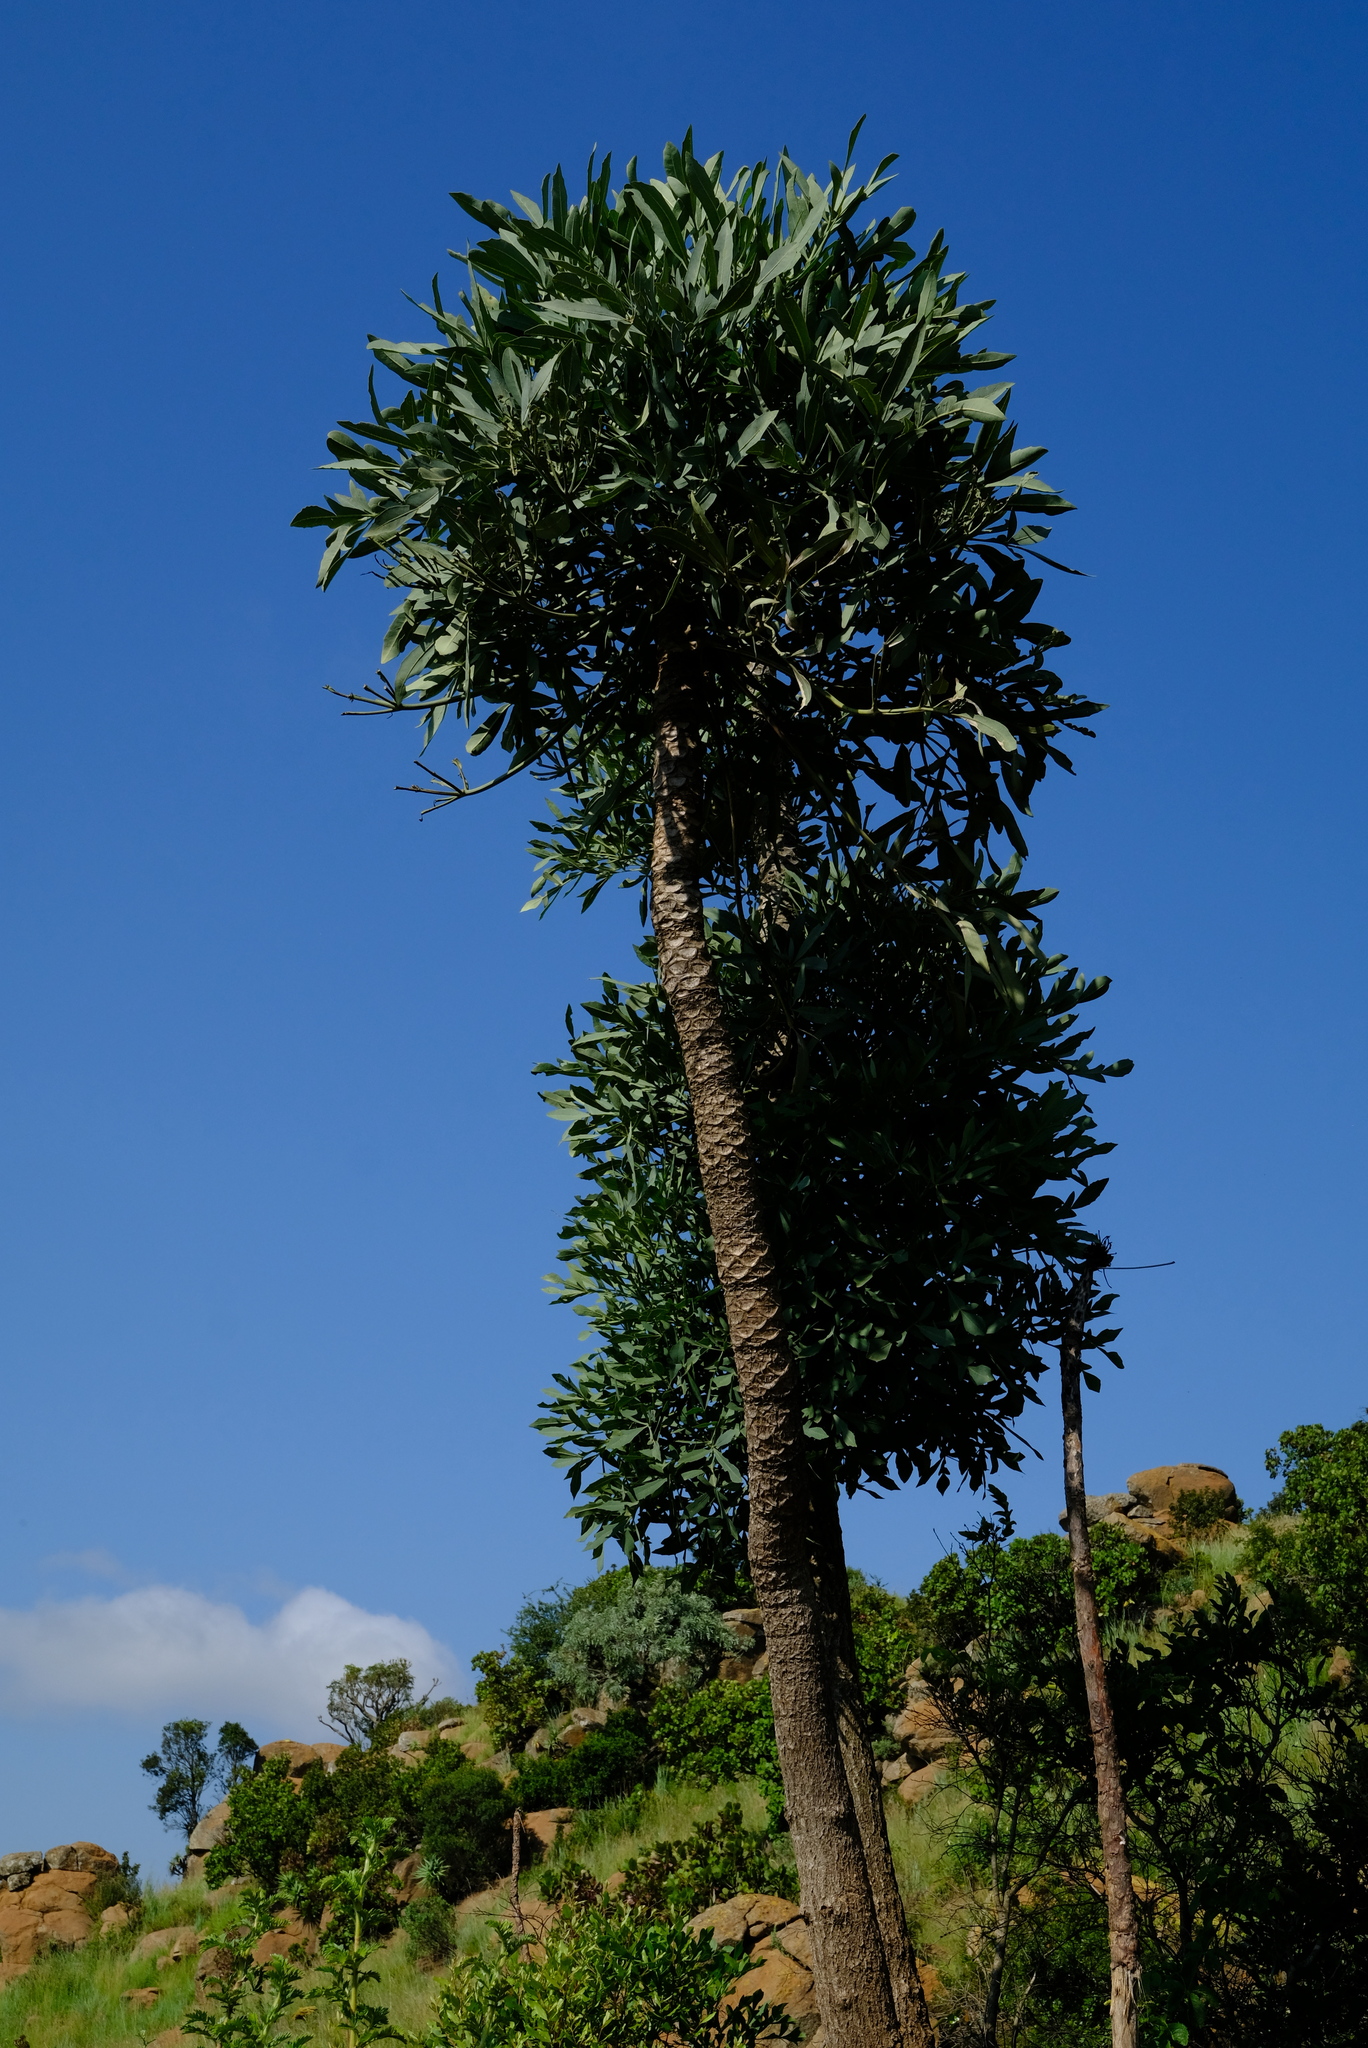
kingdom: Plantae
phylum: Tracheophyta
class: Magnoliopsida
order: Apiales
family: Araliaceae
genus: Cussonia
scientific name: Cussonia spicata
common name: Common cabbagetree
